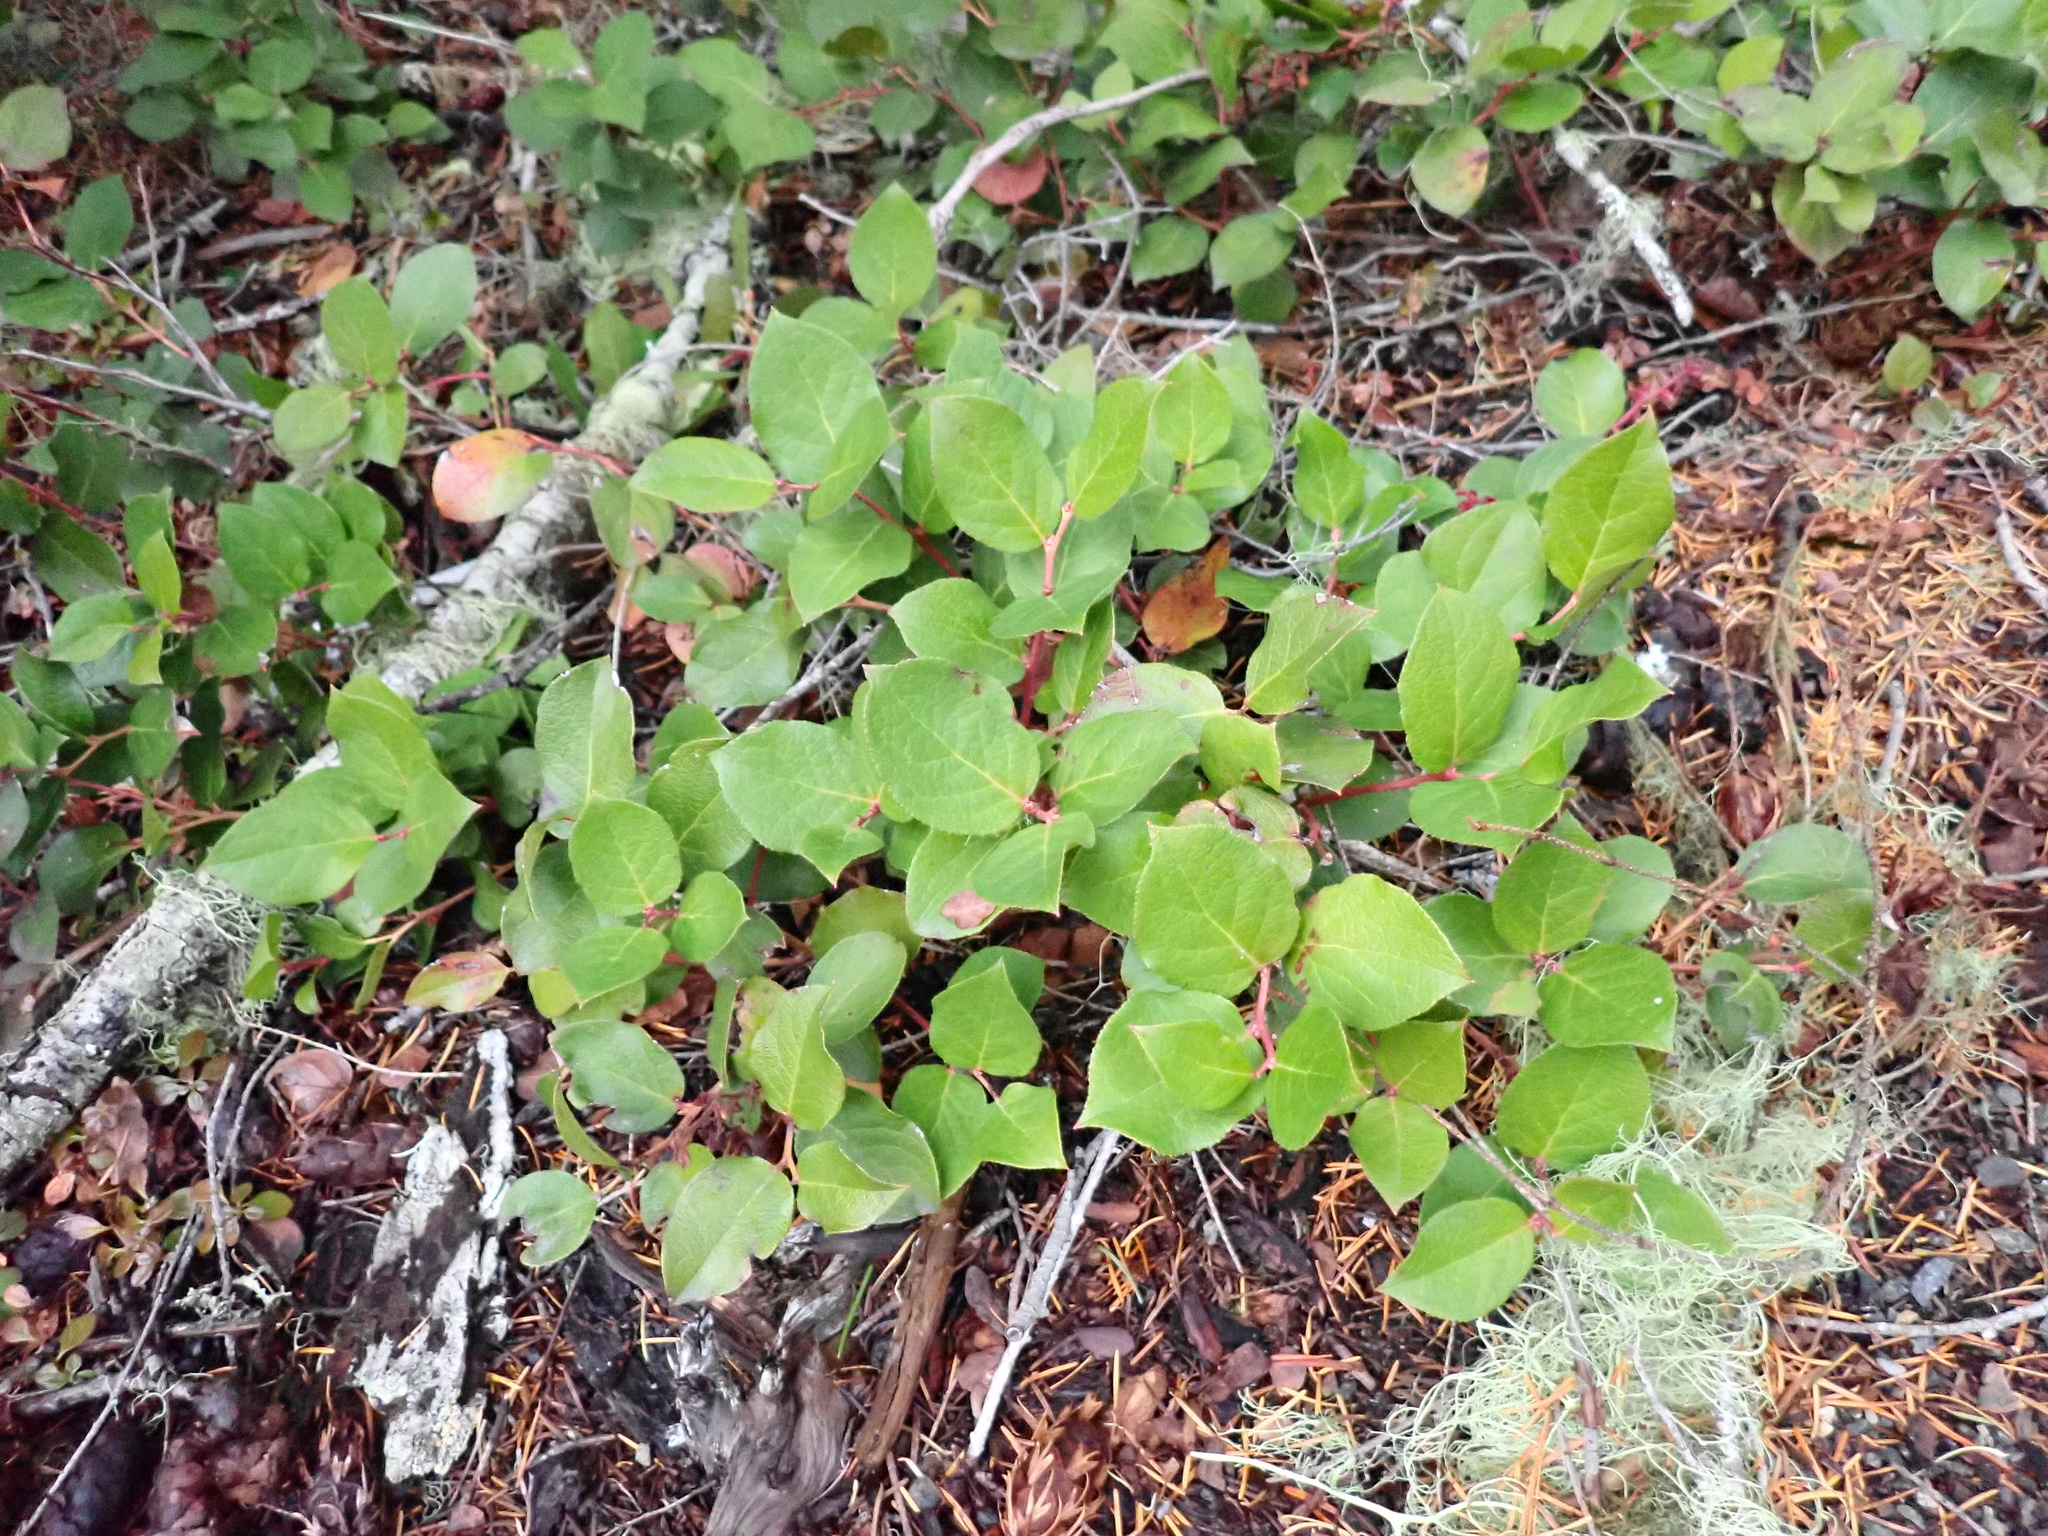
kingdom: Plantae
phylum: Tracheophyta
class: Magnoliopsida
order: Ericales
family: Ericaceae
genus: Gaultheria
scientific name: Gaultheria shallon
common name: Shallon
